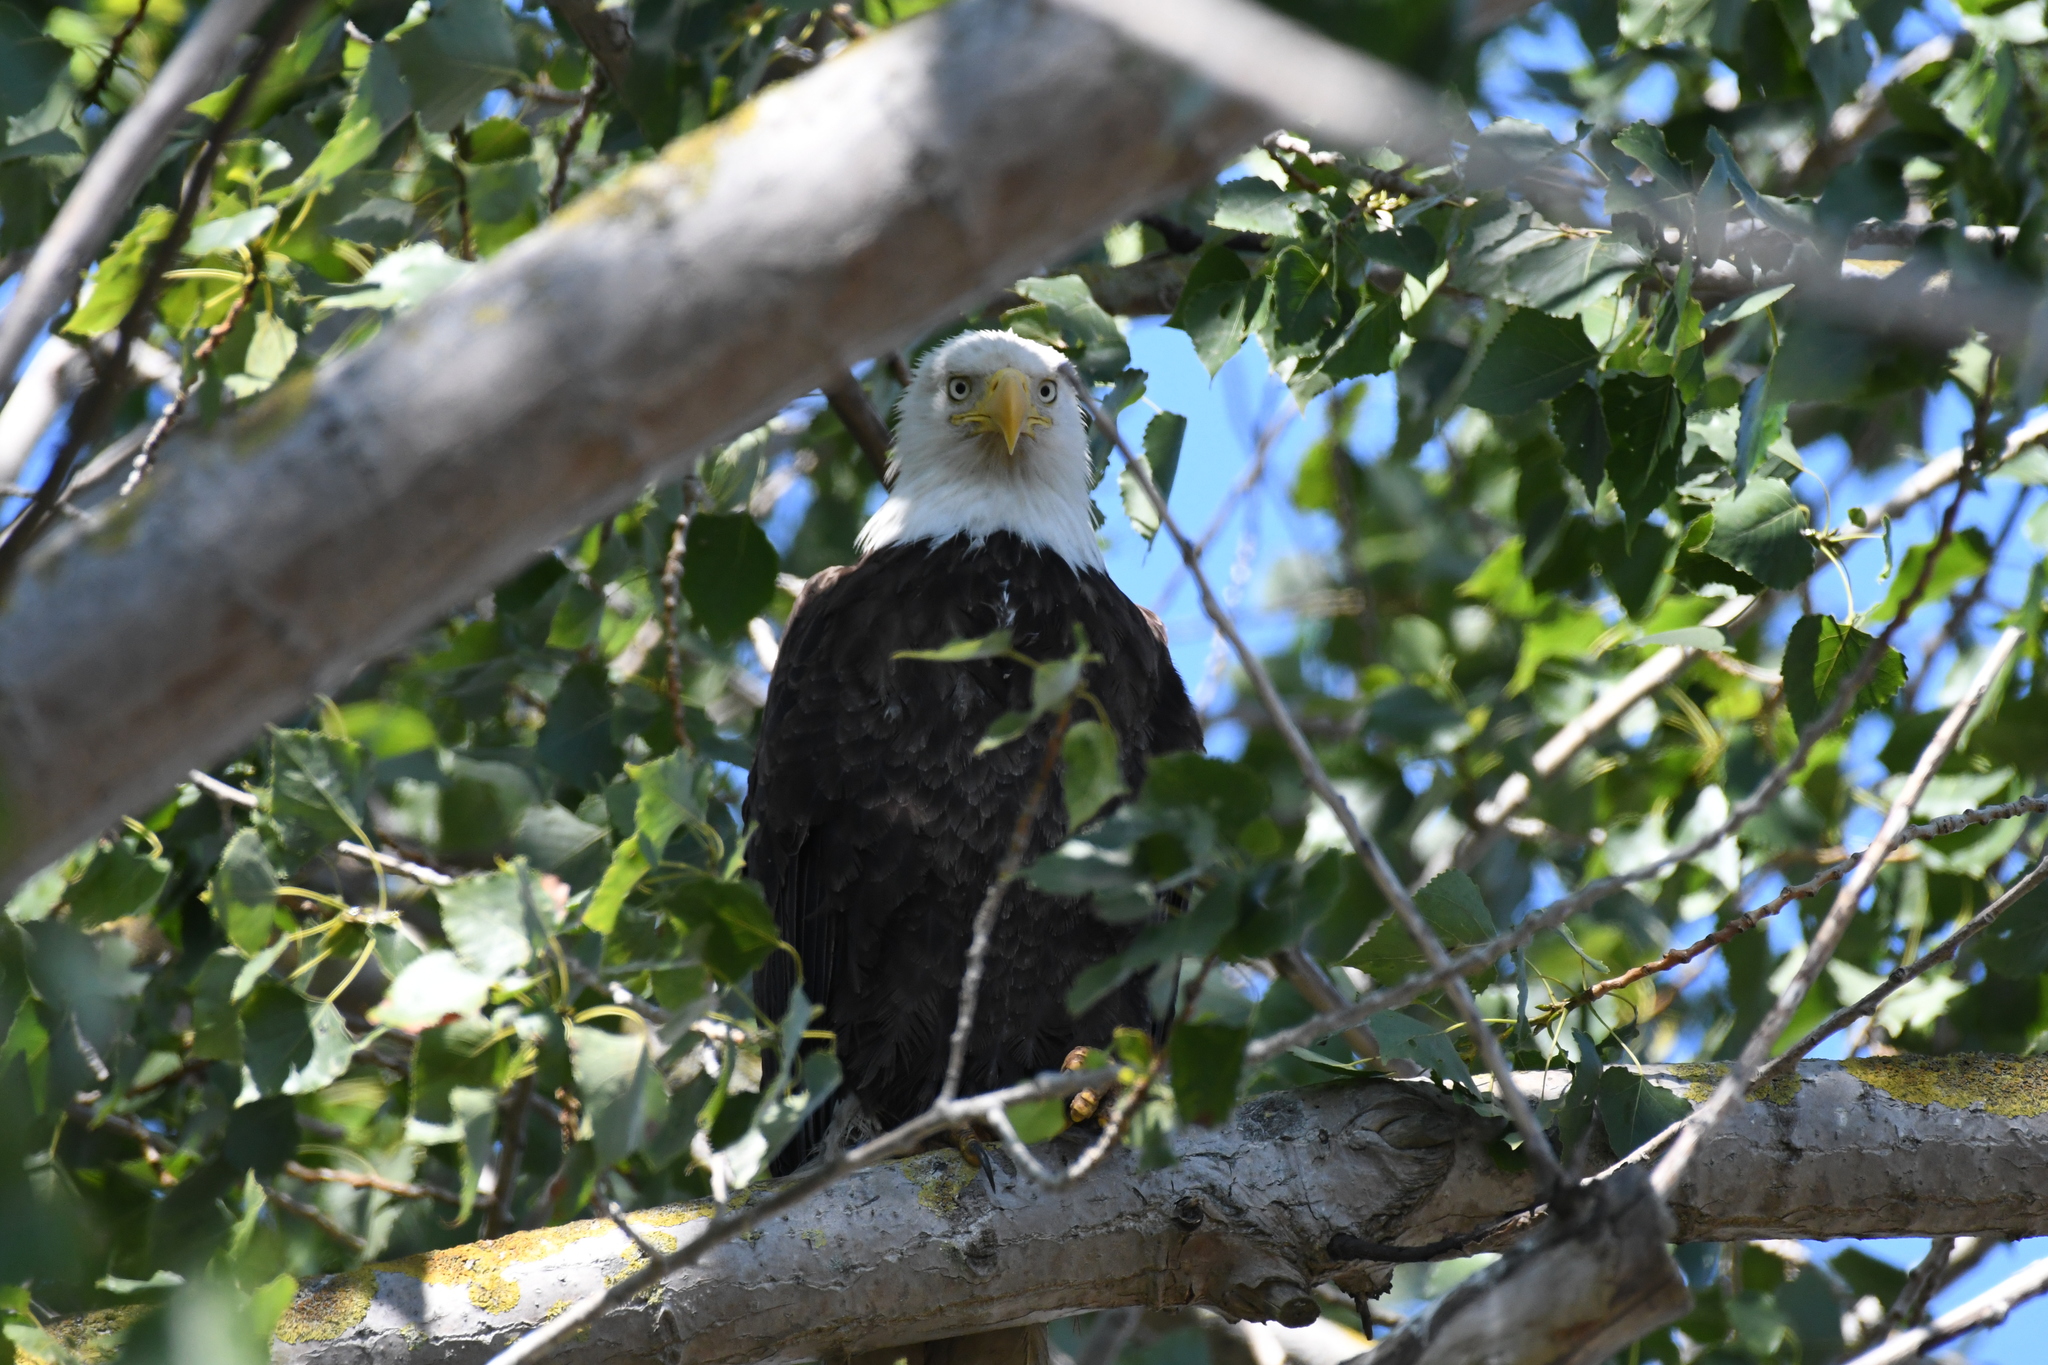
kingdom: Animalia
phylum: Chordata
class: Aves
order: Accipitriformes
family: Accipitridae
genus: Haliaeetus
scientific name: Haliaeetus leucocephalus
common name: Bald eagle
